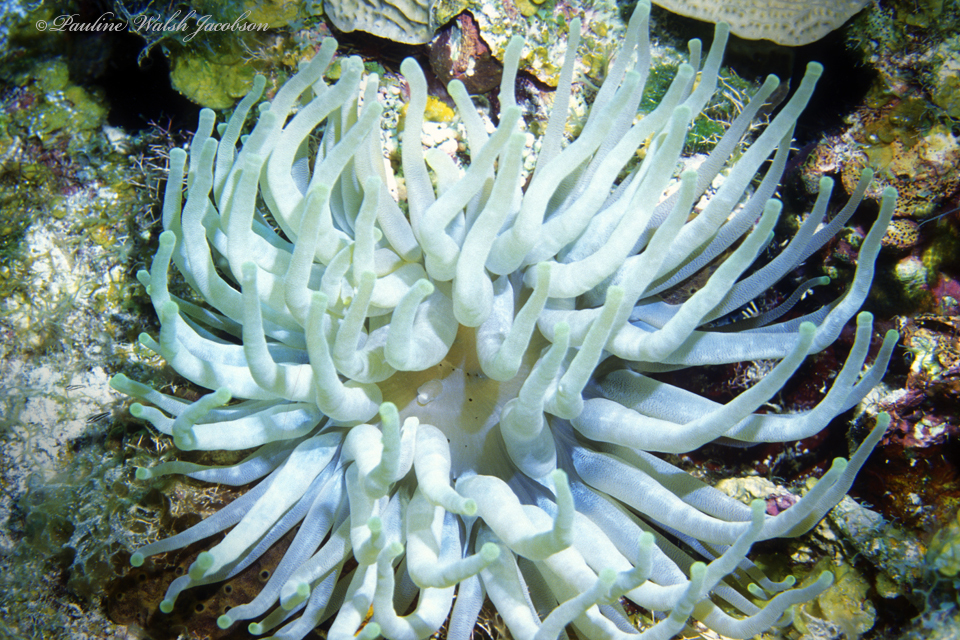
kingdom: Animalia
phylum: Cnidaria
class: Anthozoa
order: Actiniaria
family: Actiniidae
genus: Condylactis
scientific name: Condylactis gigantea
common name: Giant caribbean anemone
